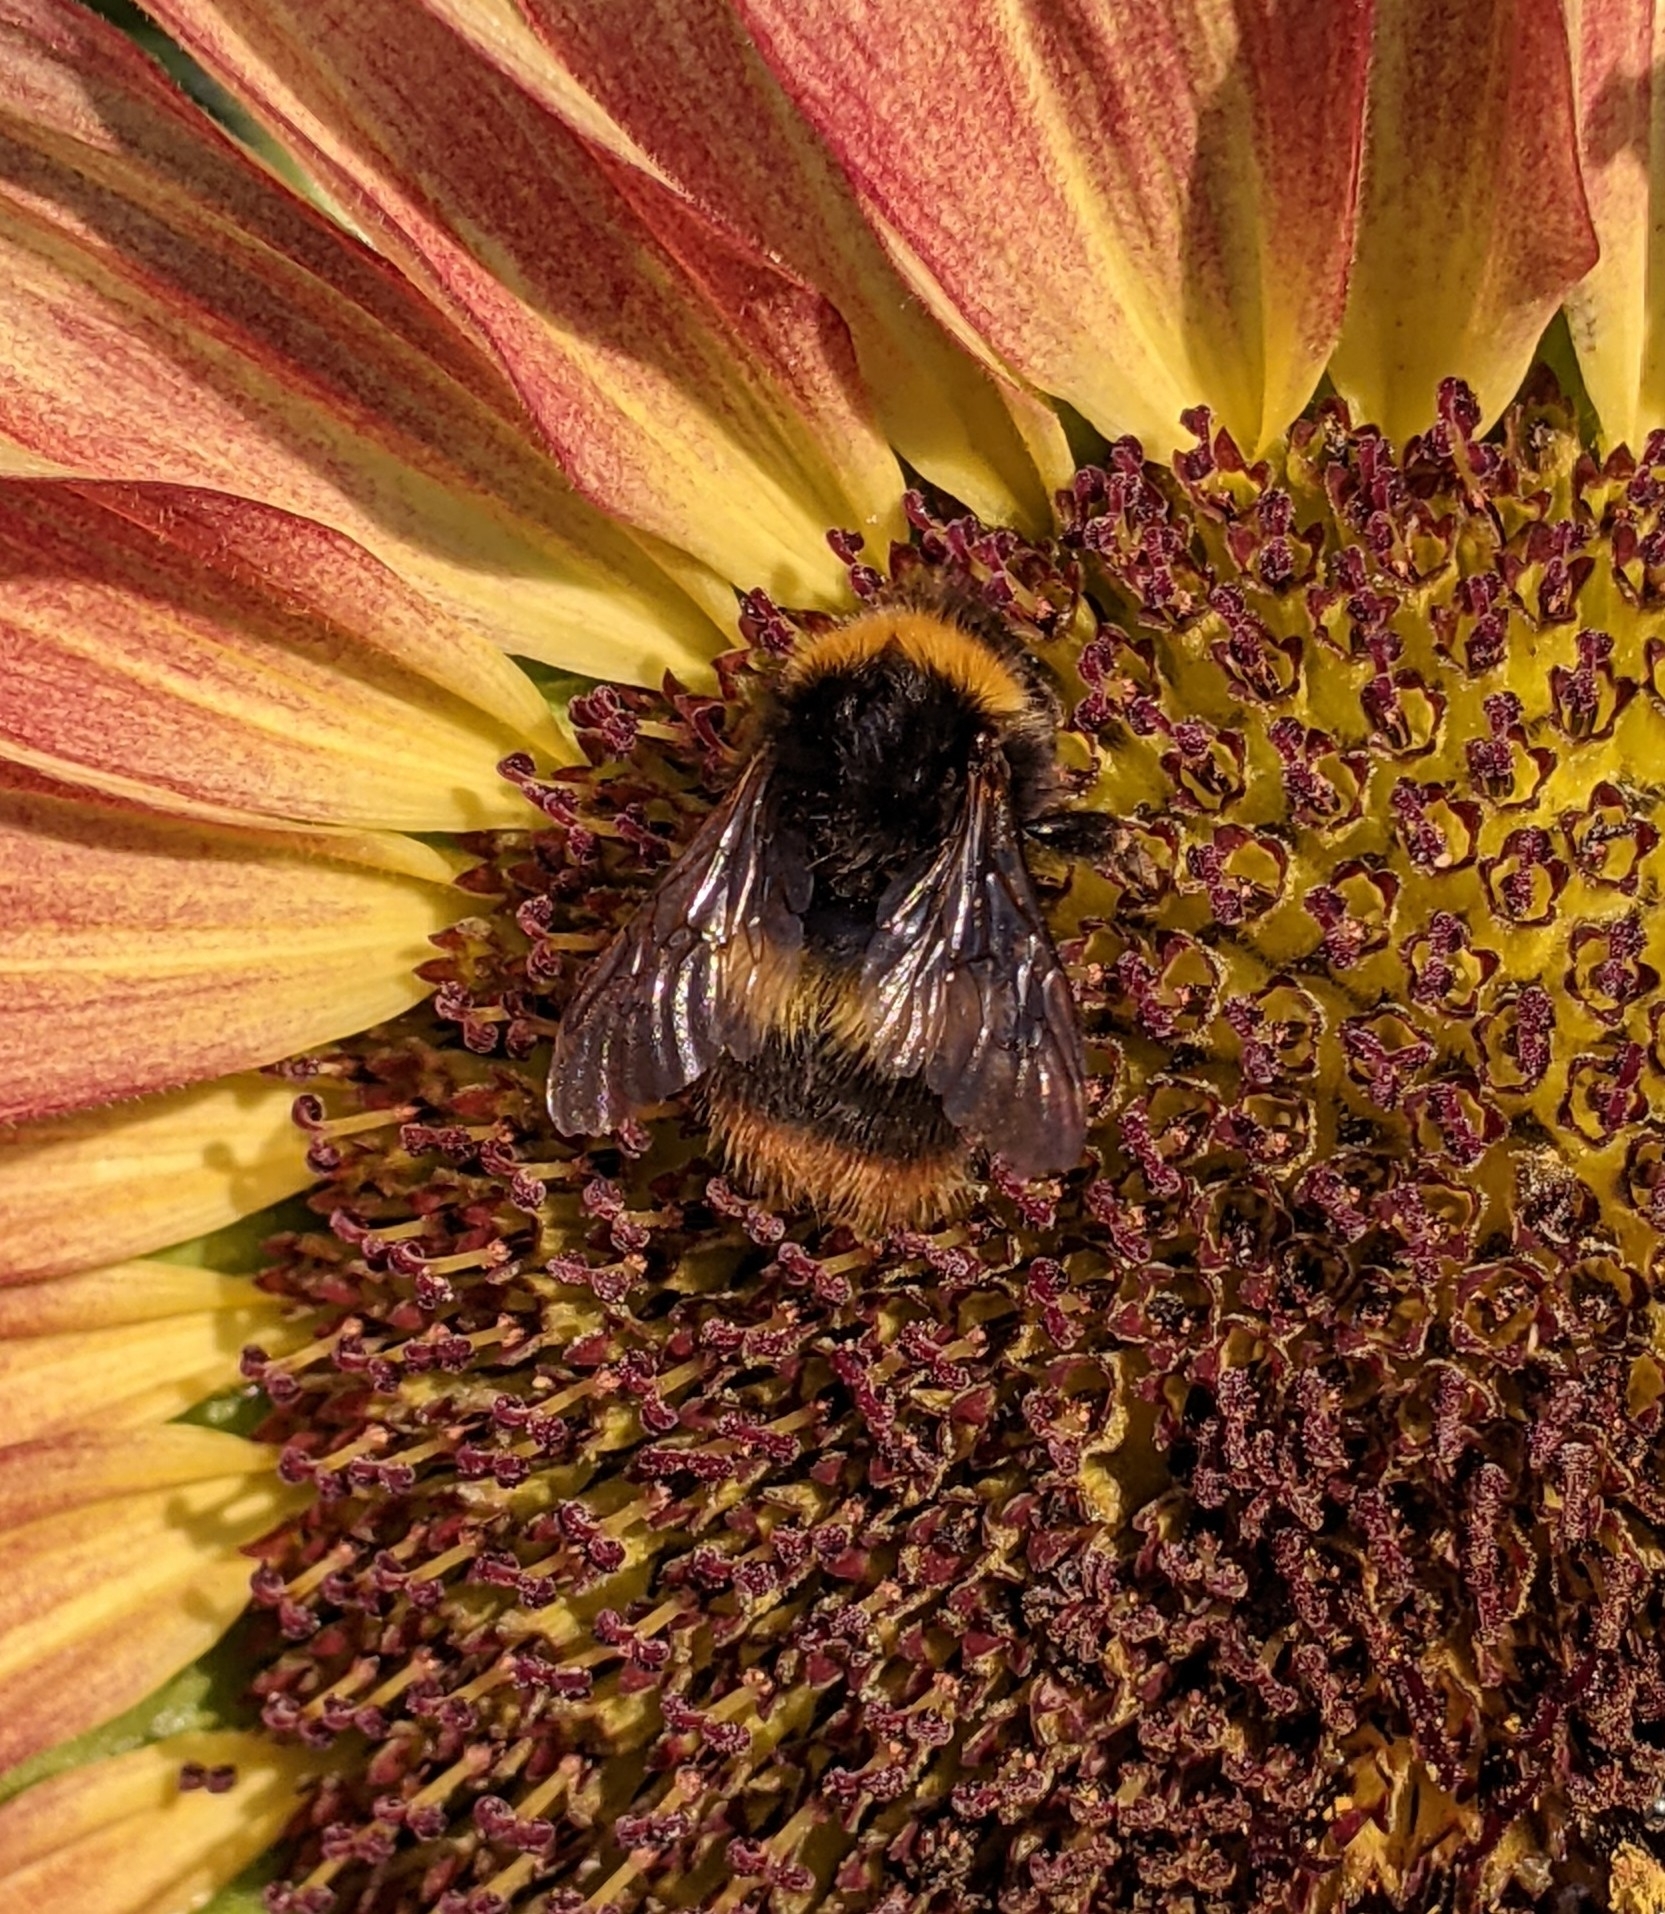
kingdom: Animalia
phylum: Arthropoda
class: Insecta
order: Hymenoptera
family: Apidae
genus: Bombus
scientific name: Bombus pratorum
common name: Early humble-bee
